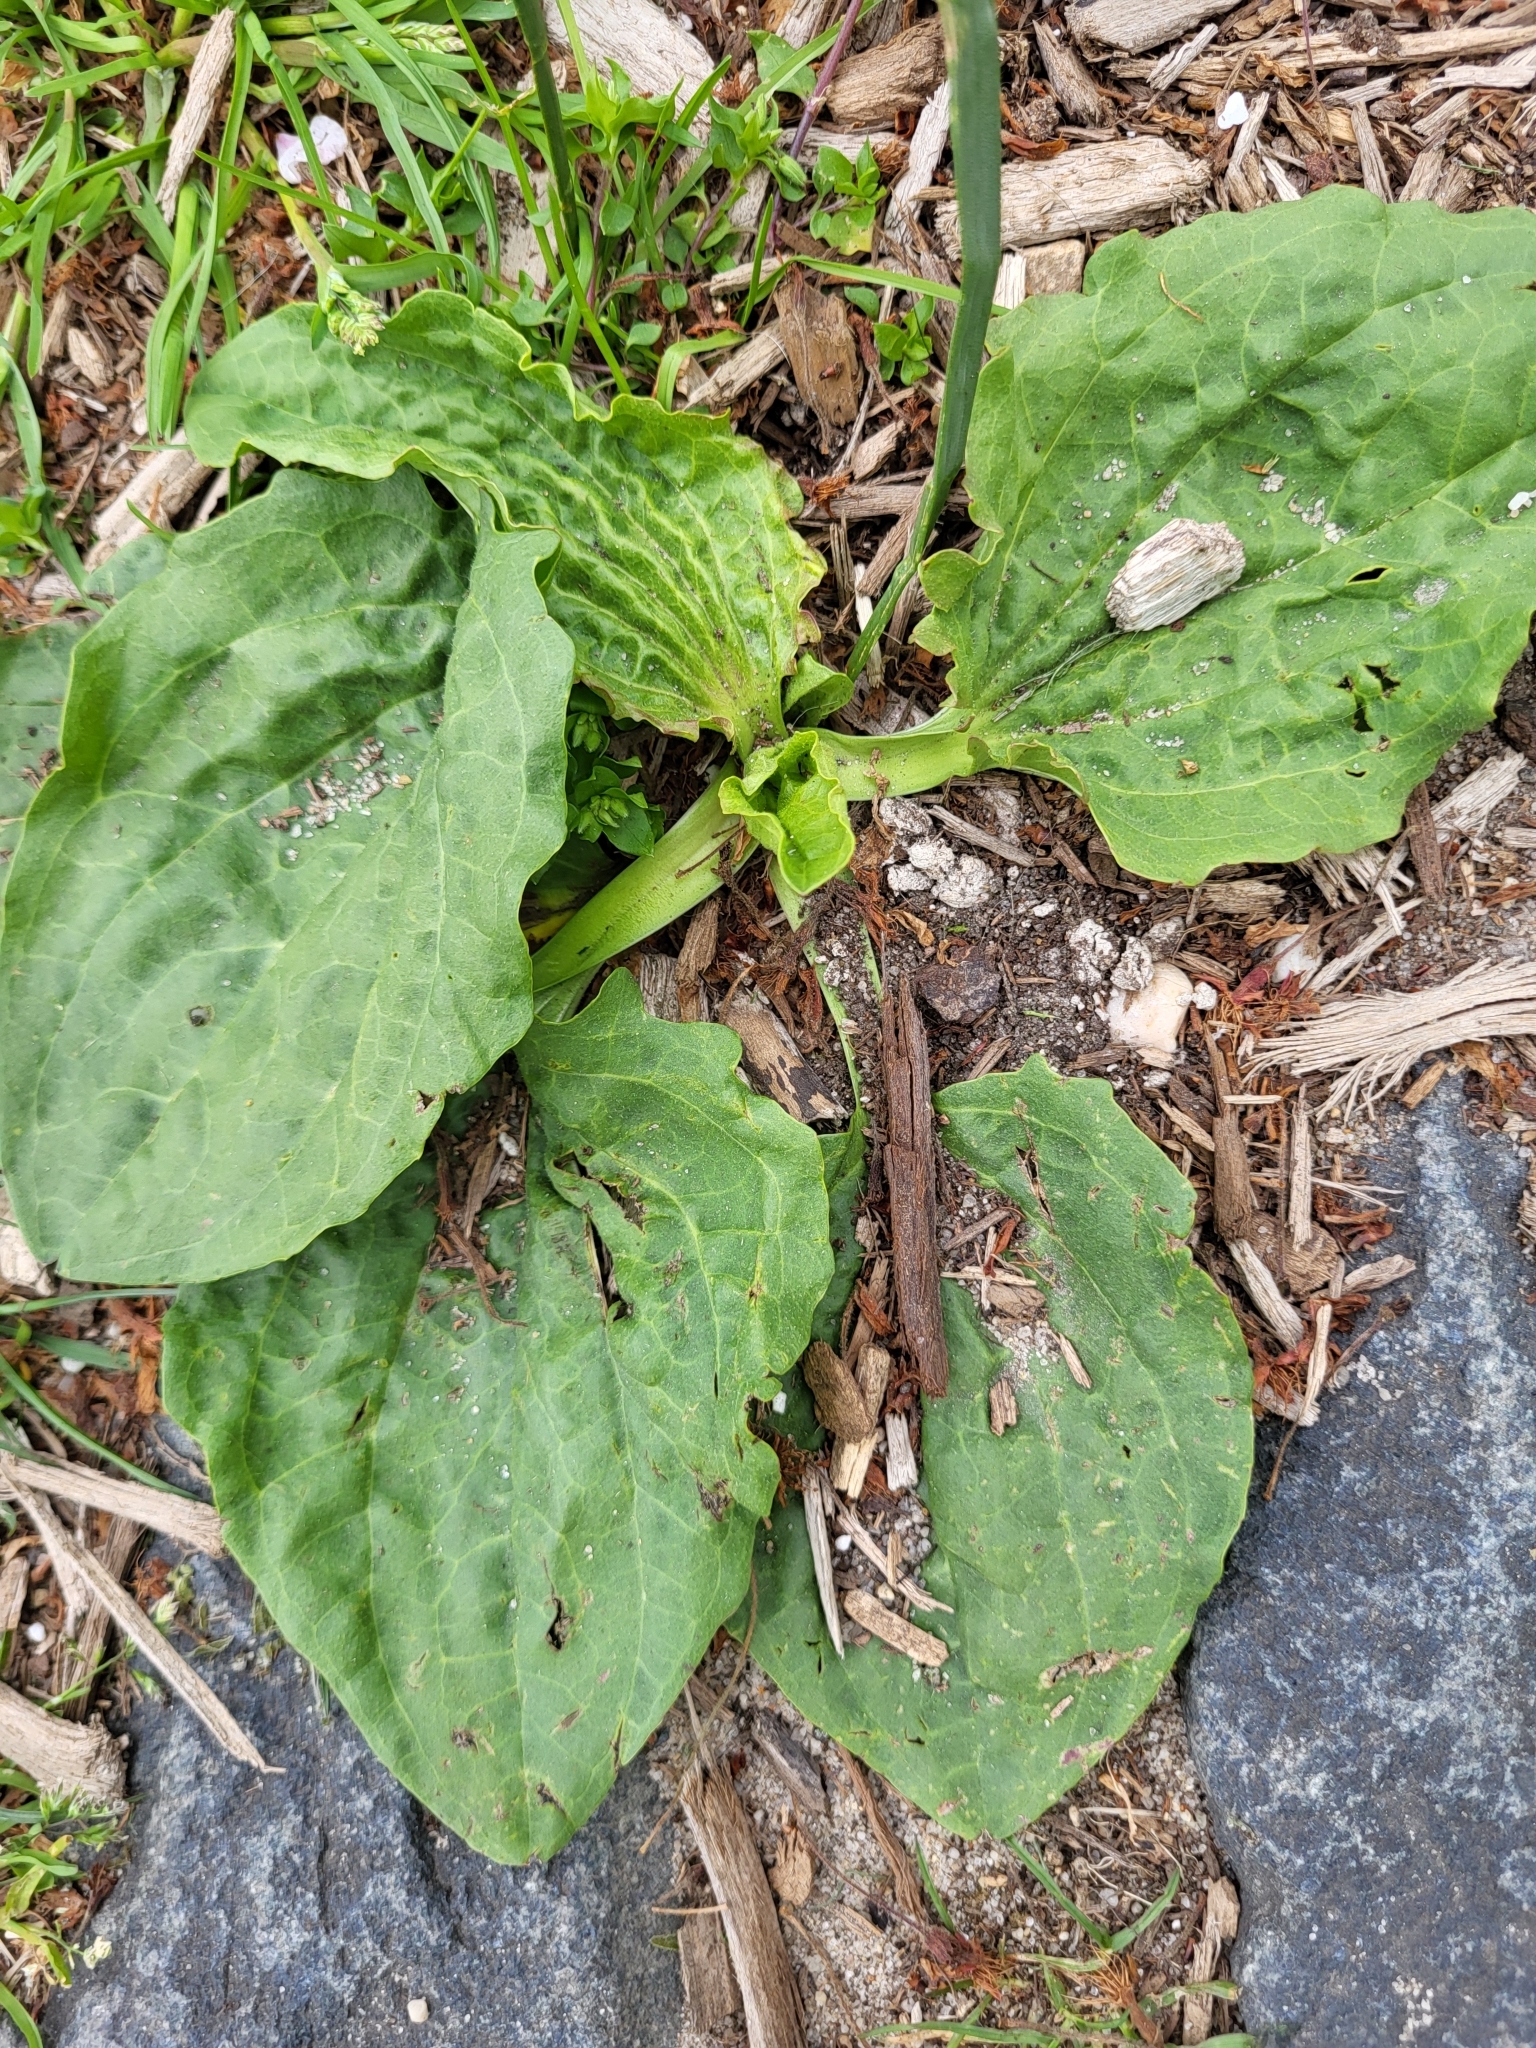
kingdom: Plantae
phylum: Tracheophyta
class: Magnoliopsida
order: Lamiales
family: Plantaginaceae
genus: Plantago
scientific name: Plantago major
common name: Common plantain
